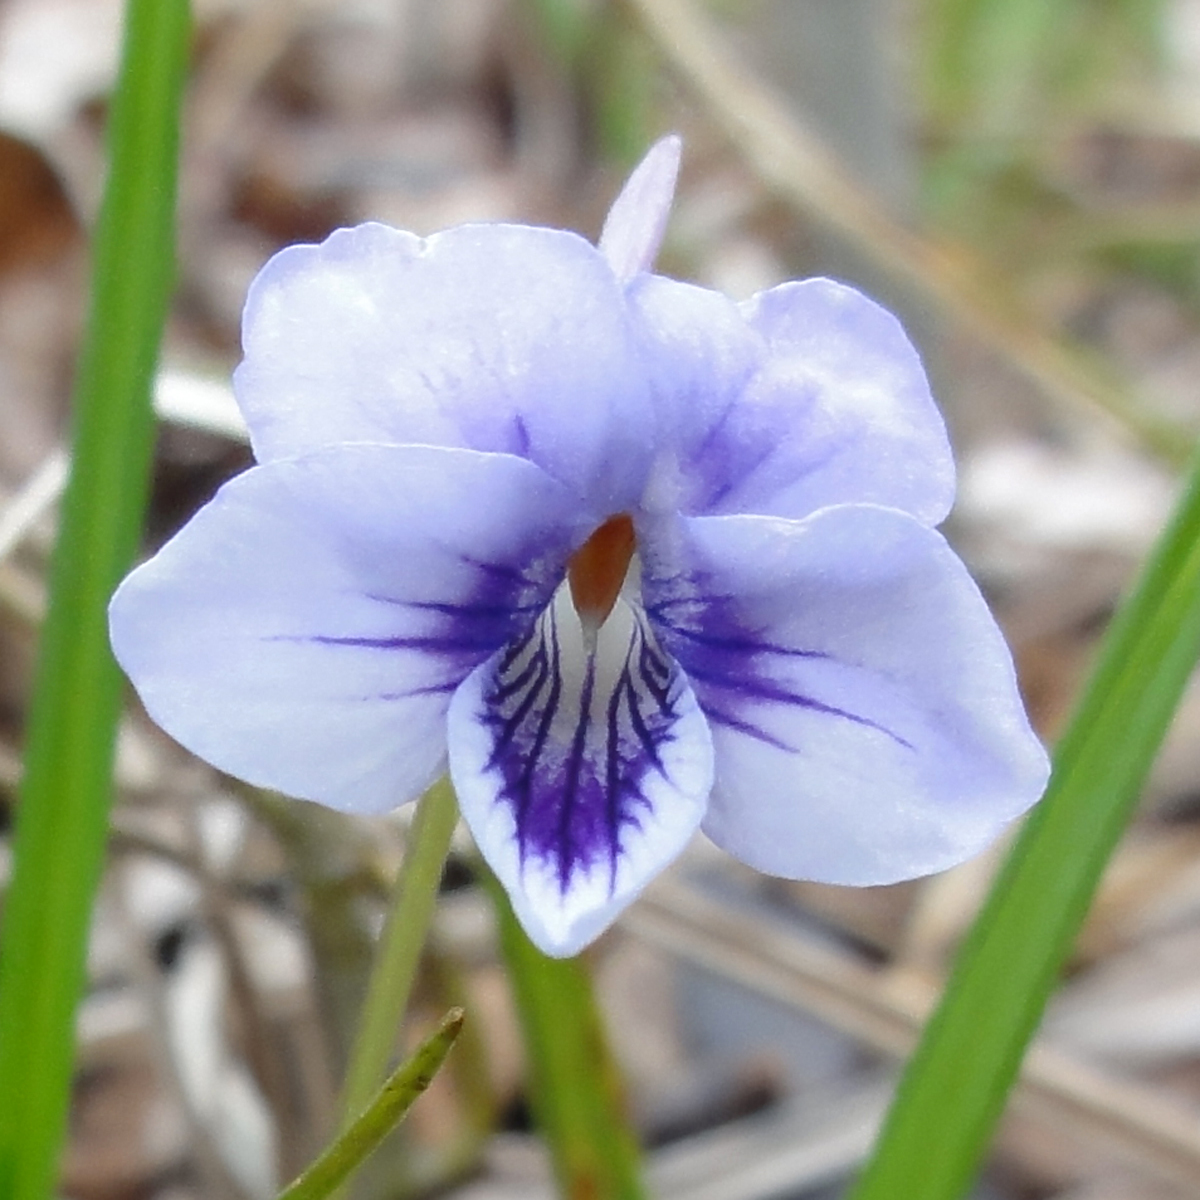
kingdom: Plantae
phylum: Tracheophyta
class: Magnoliopsida
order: Malpighiales
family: Violaceae
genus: Viola
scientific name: Viola rostrata
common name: Long-spur violet
